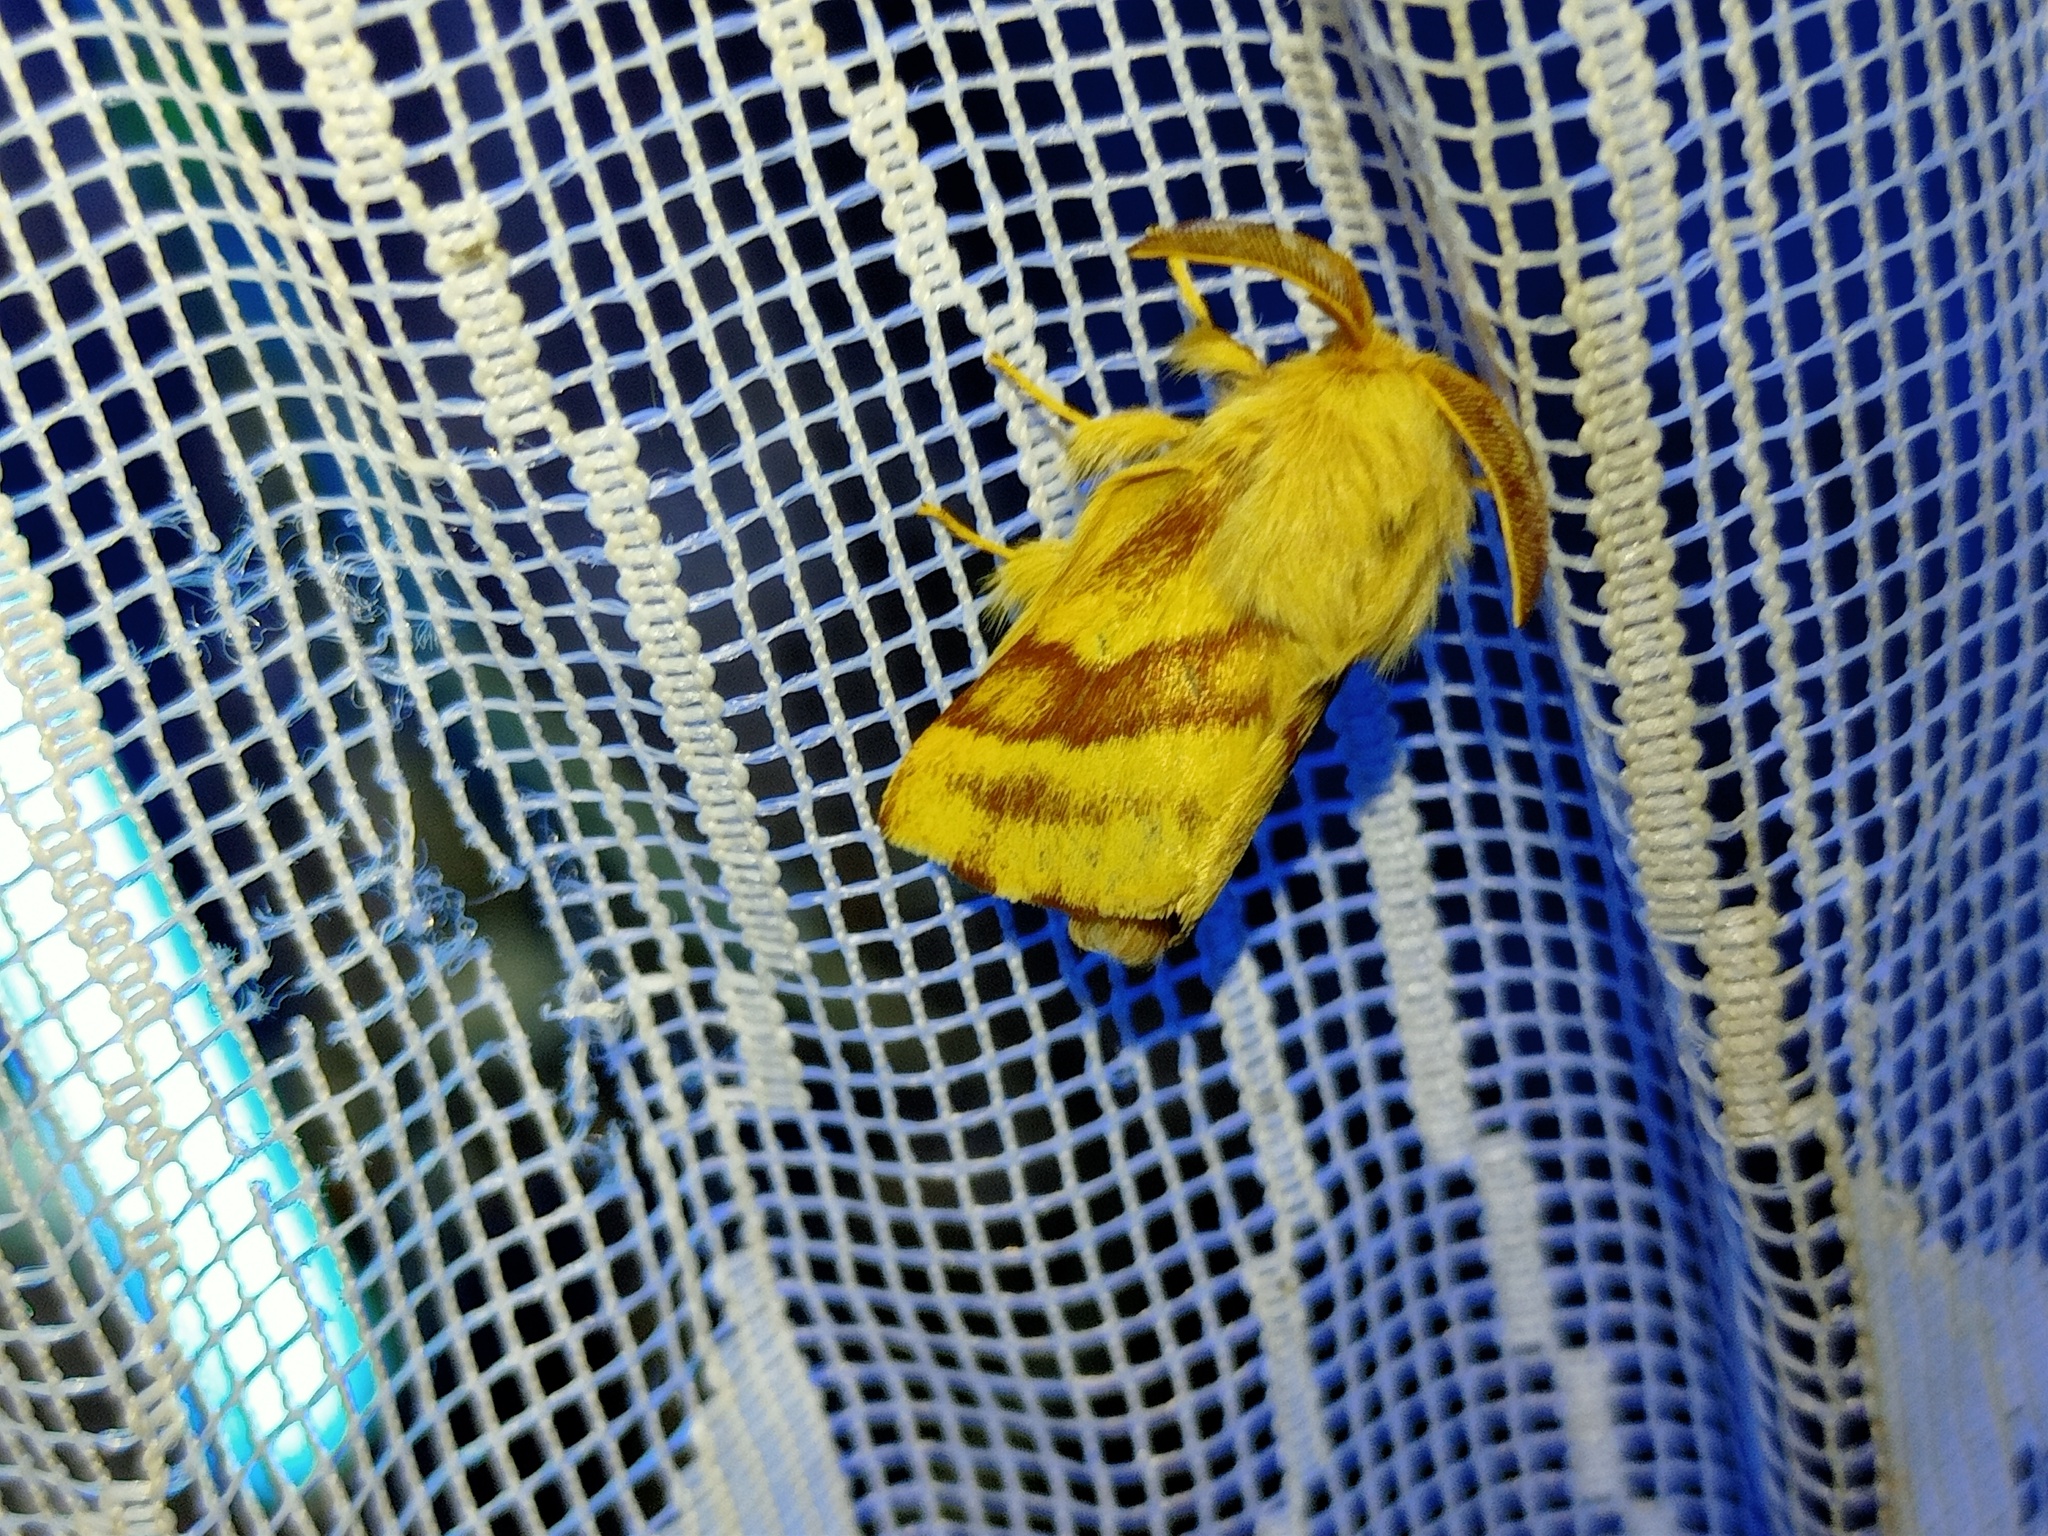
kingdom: Animalia
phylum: Arthropoda
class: Insecta
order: Lepidoptera
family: Lasiocampidae
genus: Malacosoma
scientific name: Malacosoma castrense
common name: Ground lackey
